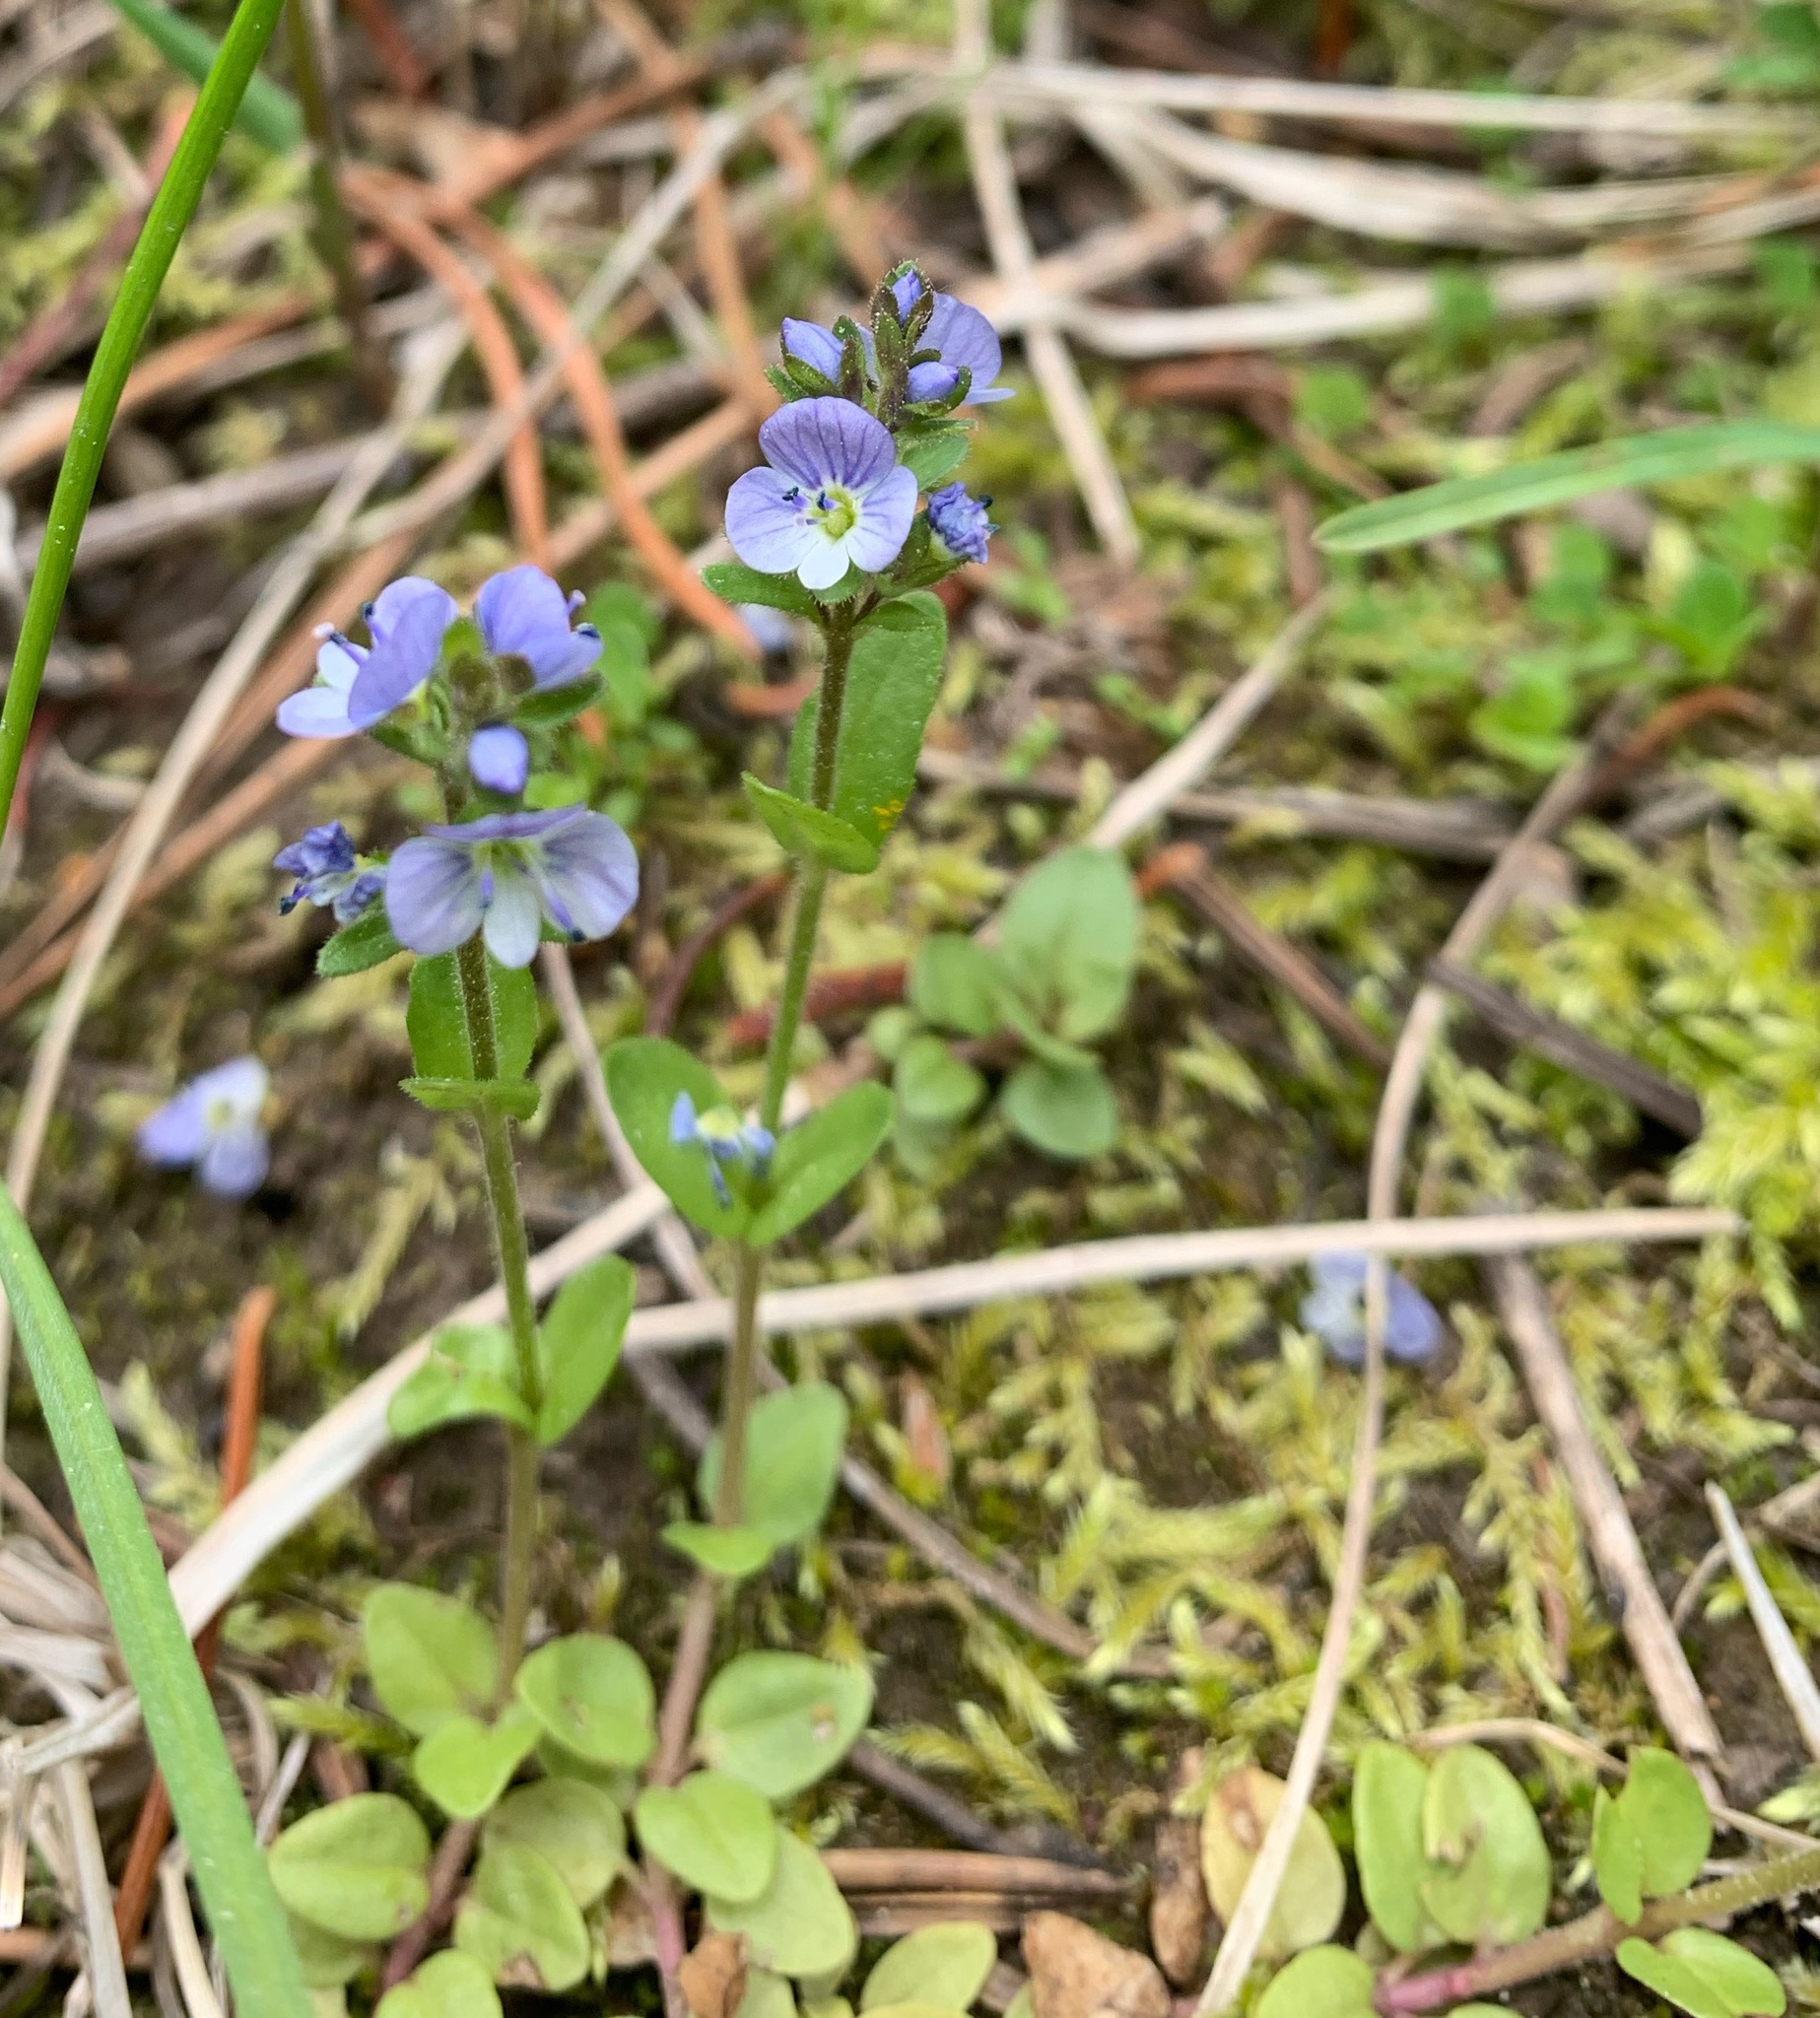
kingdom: Plantae
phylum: Tracheophyta
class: Magnoliopsida
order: Lamiales
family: Plantaginaceae
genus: Veronica
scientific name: Veronica serpyllifolia
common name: Thyme-leaved speedwell
